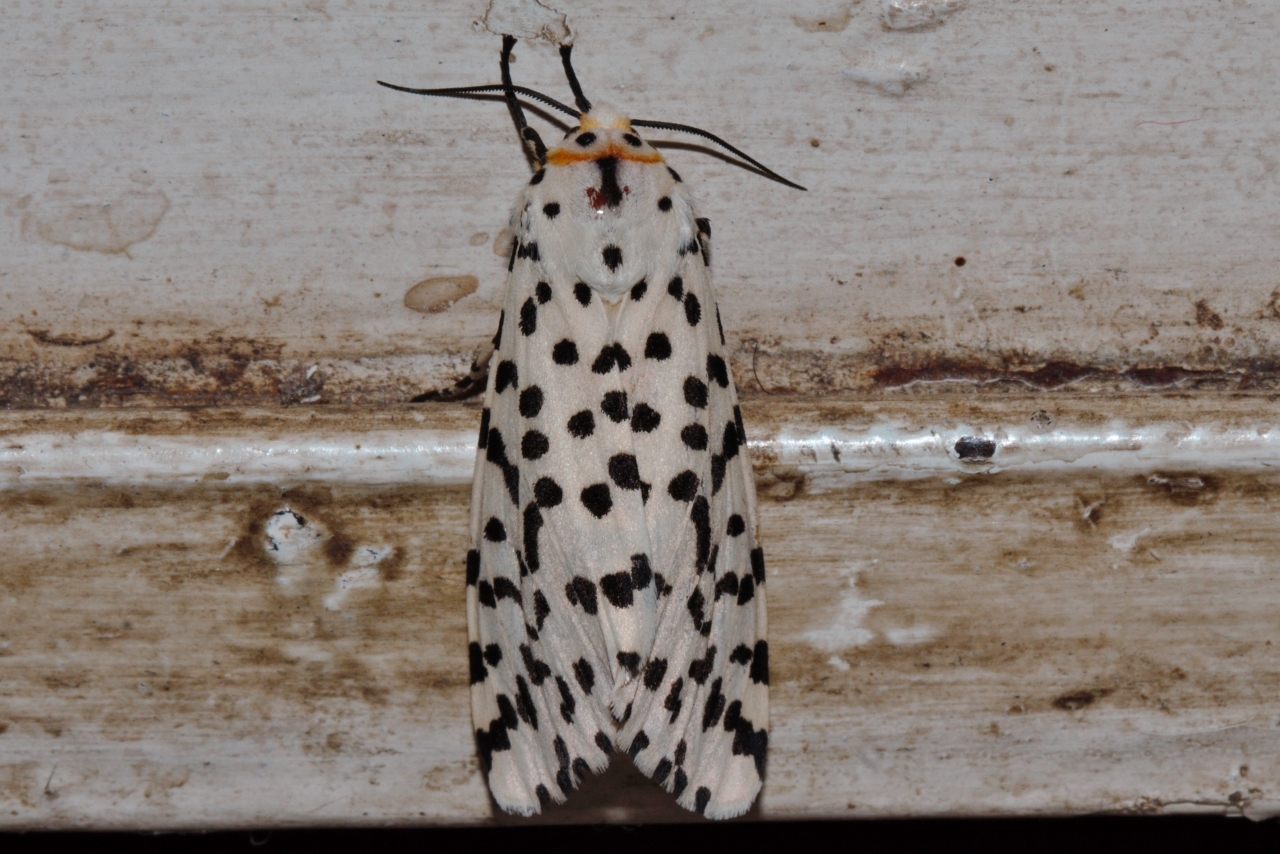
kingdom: Animalia
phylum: Arthropoda
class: Insecta
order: Lepidoptera
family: Erebidae
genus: Alpenus
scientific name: Alpenus nigropunctata
